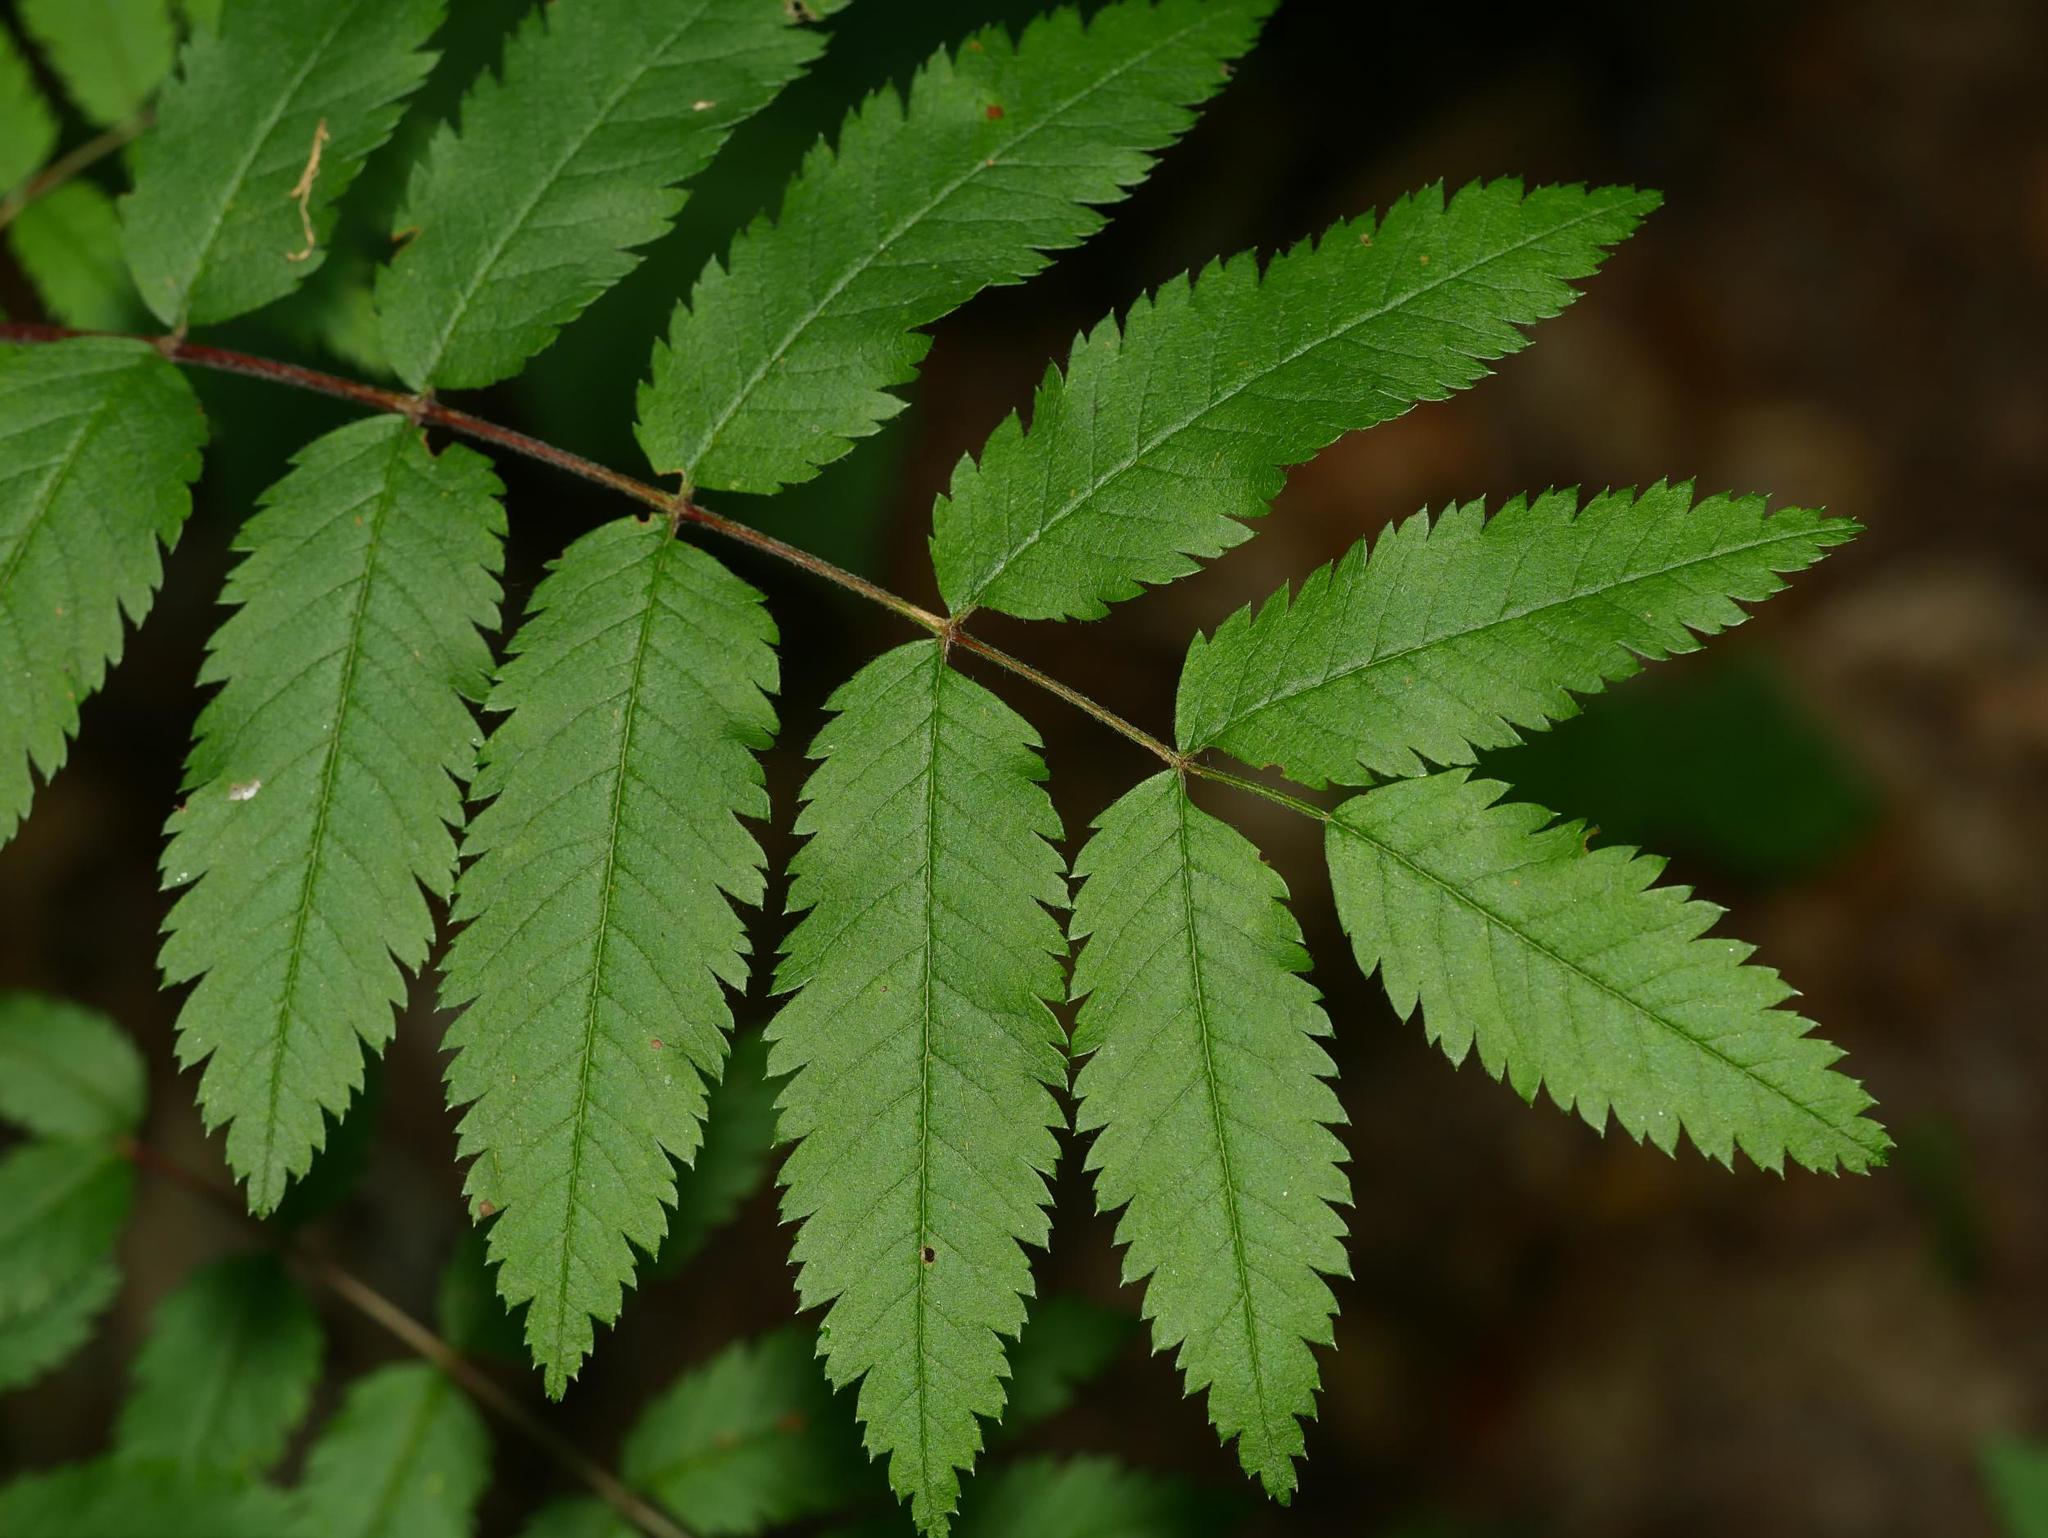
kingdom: Plantae
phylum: Tracheophyta
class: Magnoliopsida
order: Rosales
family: Rosaceae
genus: Sorbus
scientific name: Sorbus aucuparia
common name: Rowan
